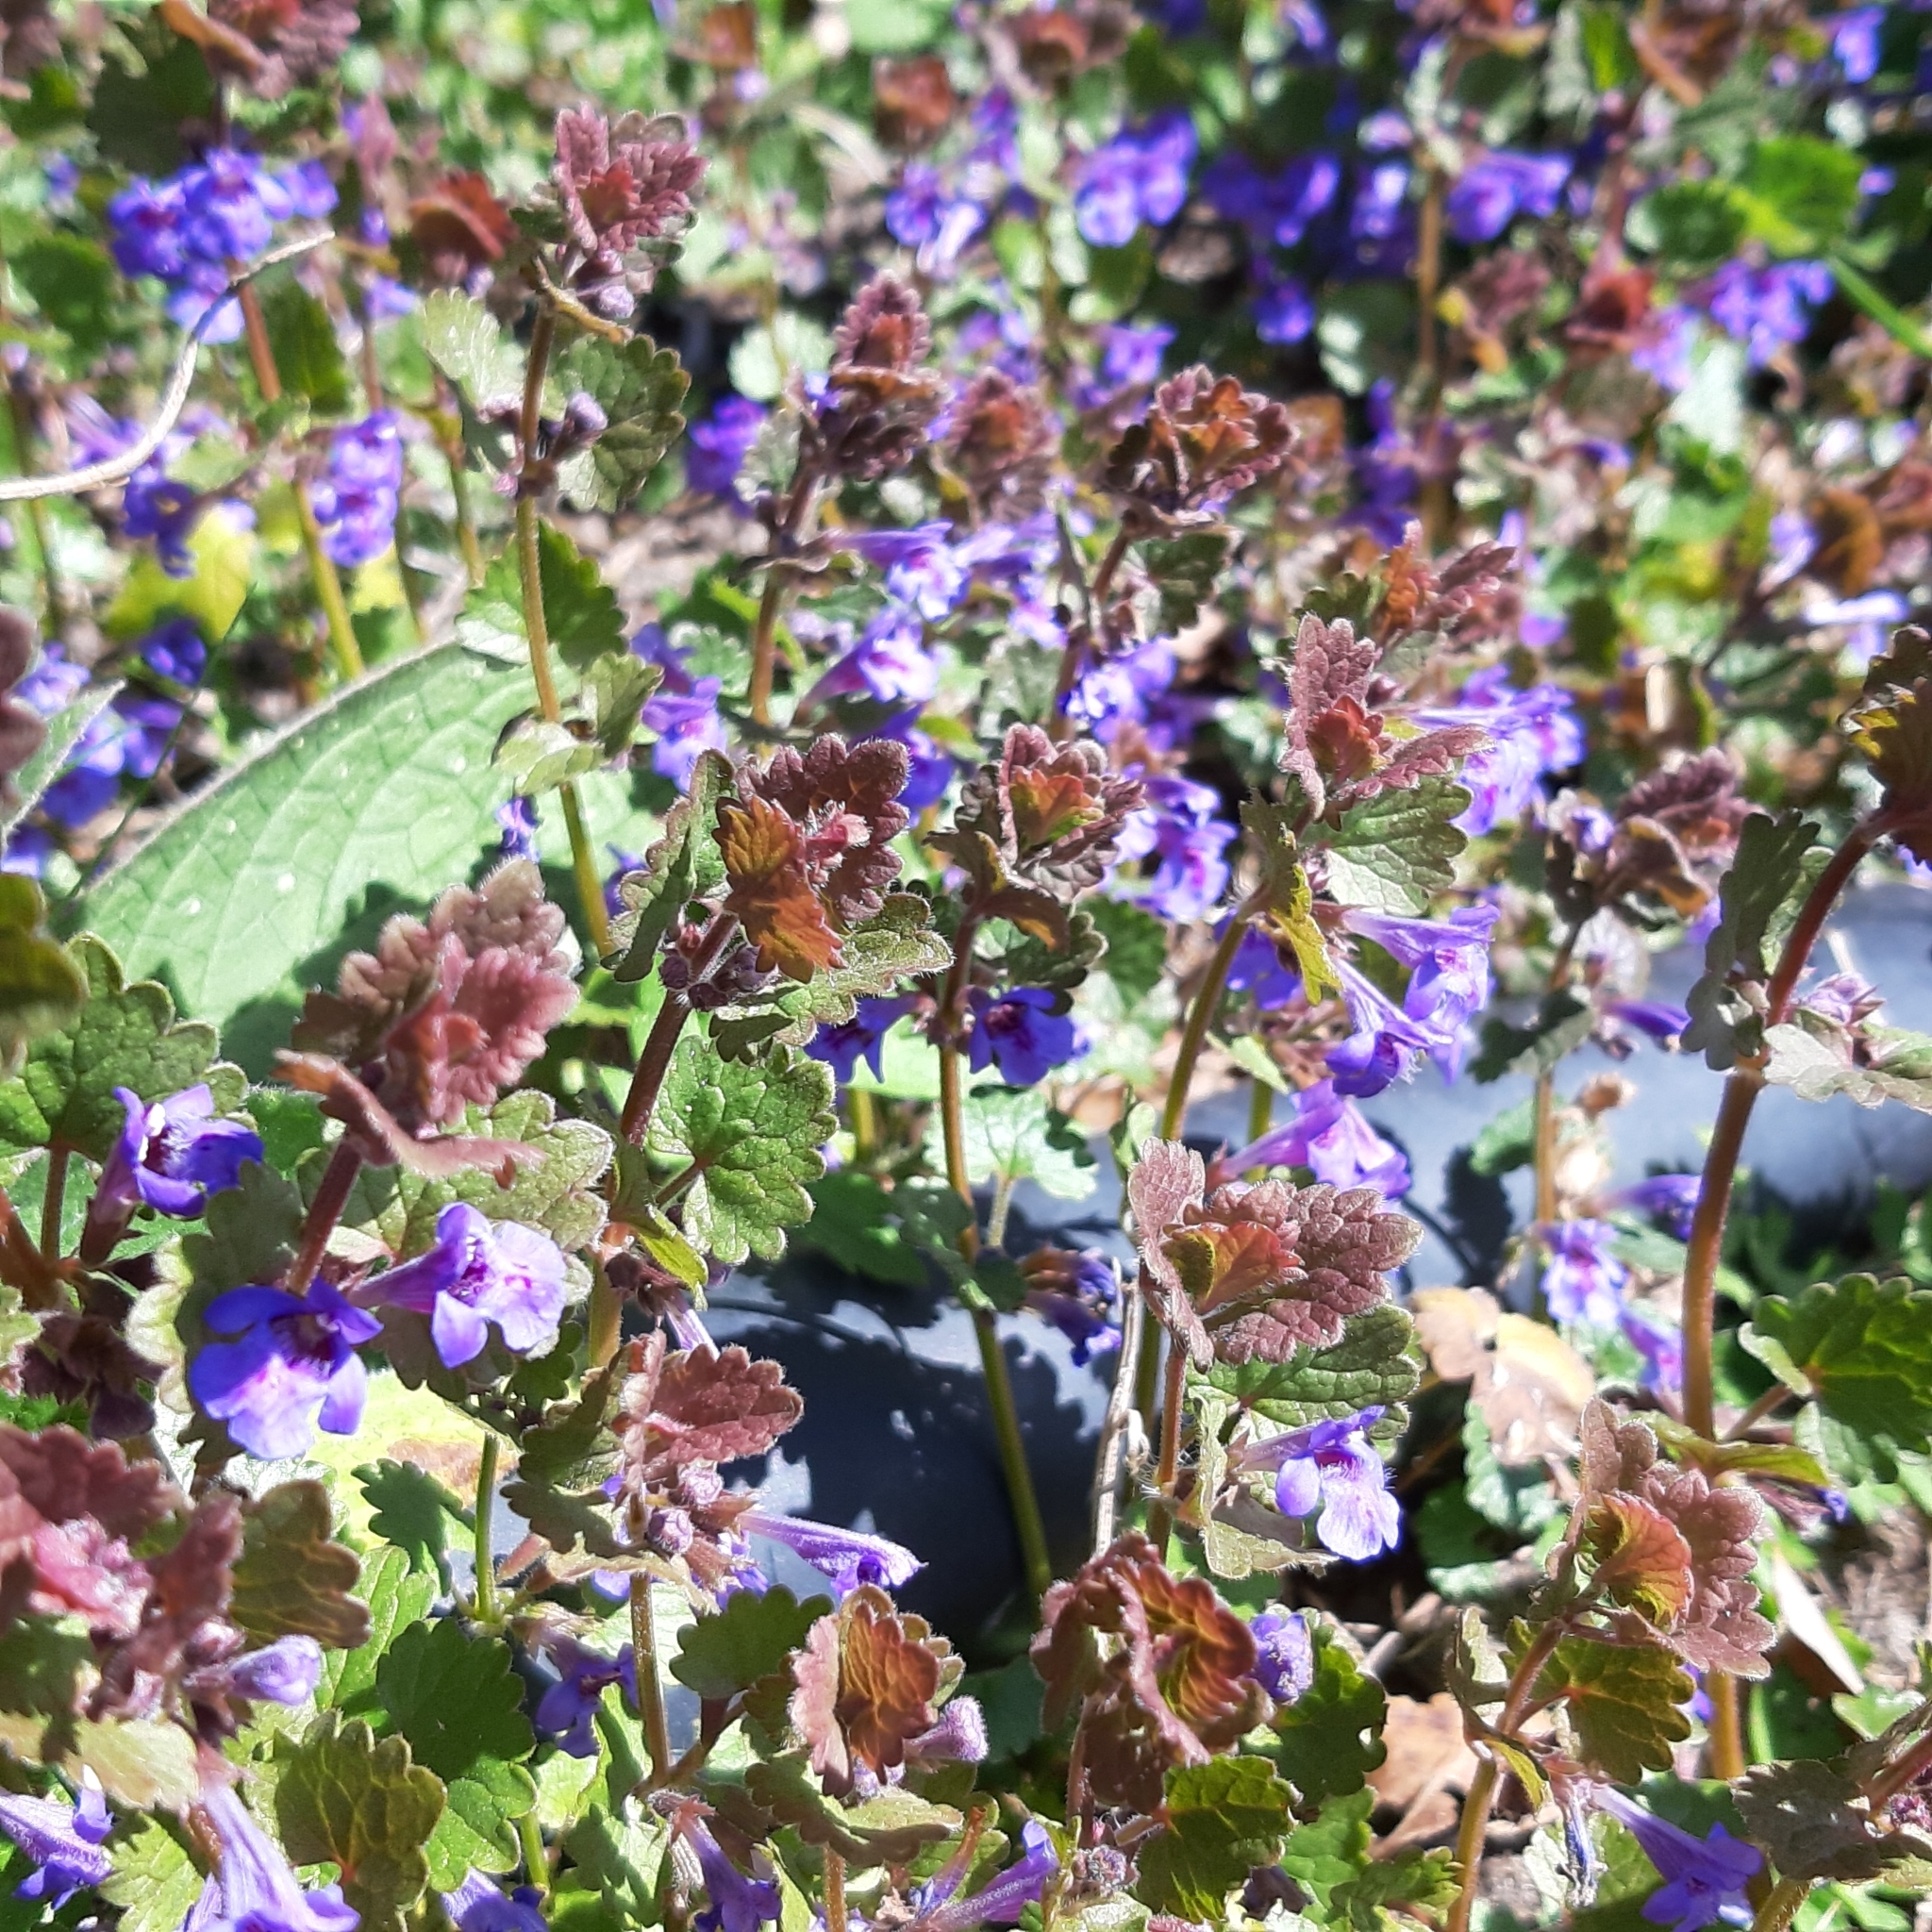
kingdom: Plantae
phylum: Tracheophyta
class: Magnoliopsida
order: Lamiales
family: Lamiaceae
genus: Glechoma
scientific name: Glechoma hederacea
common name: Ground ivy
